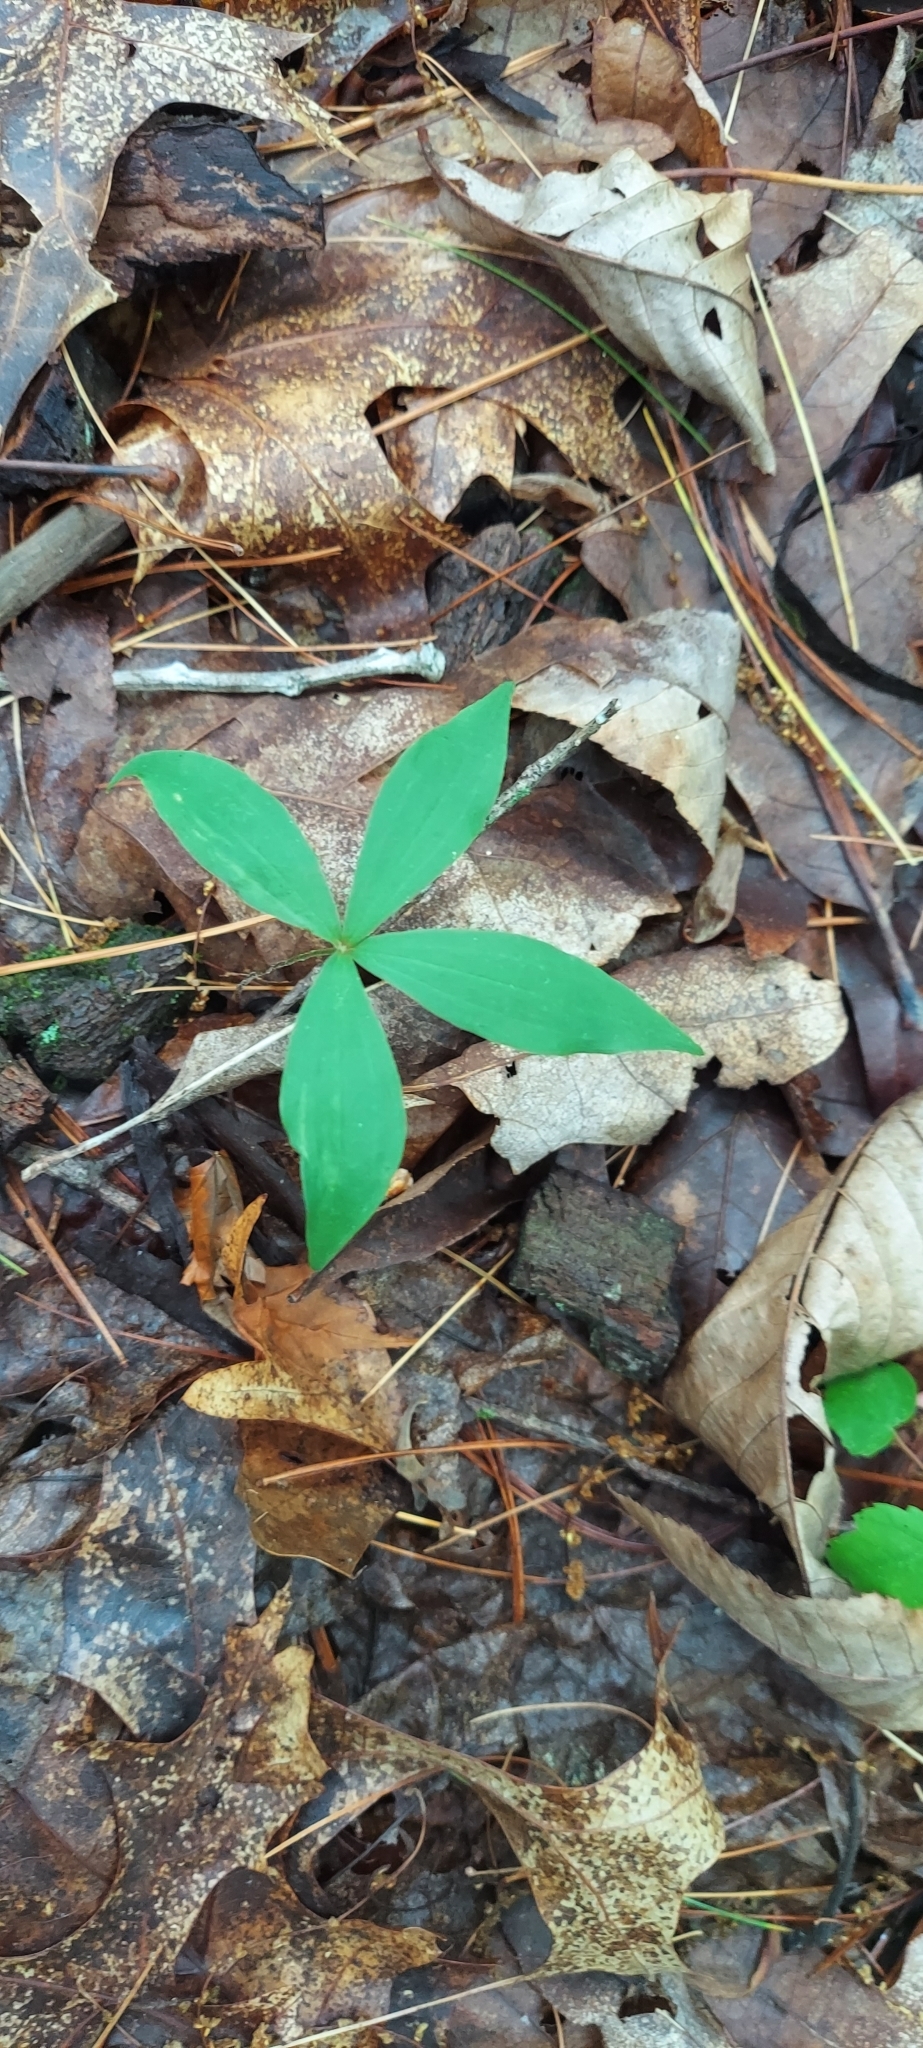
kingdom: Plantae
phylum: Tracheophyta
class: Liliopsida
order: Liliales
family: Liliaceae
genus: Medeola
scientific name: Medeola virginiana
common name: Indian cucumber-root
